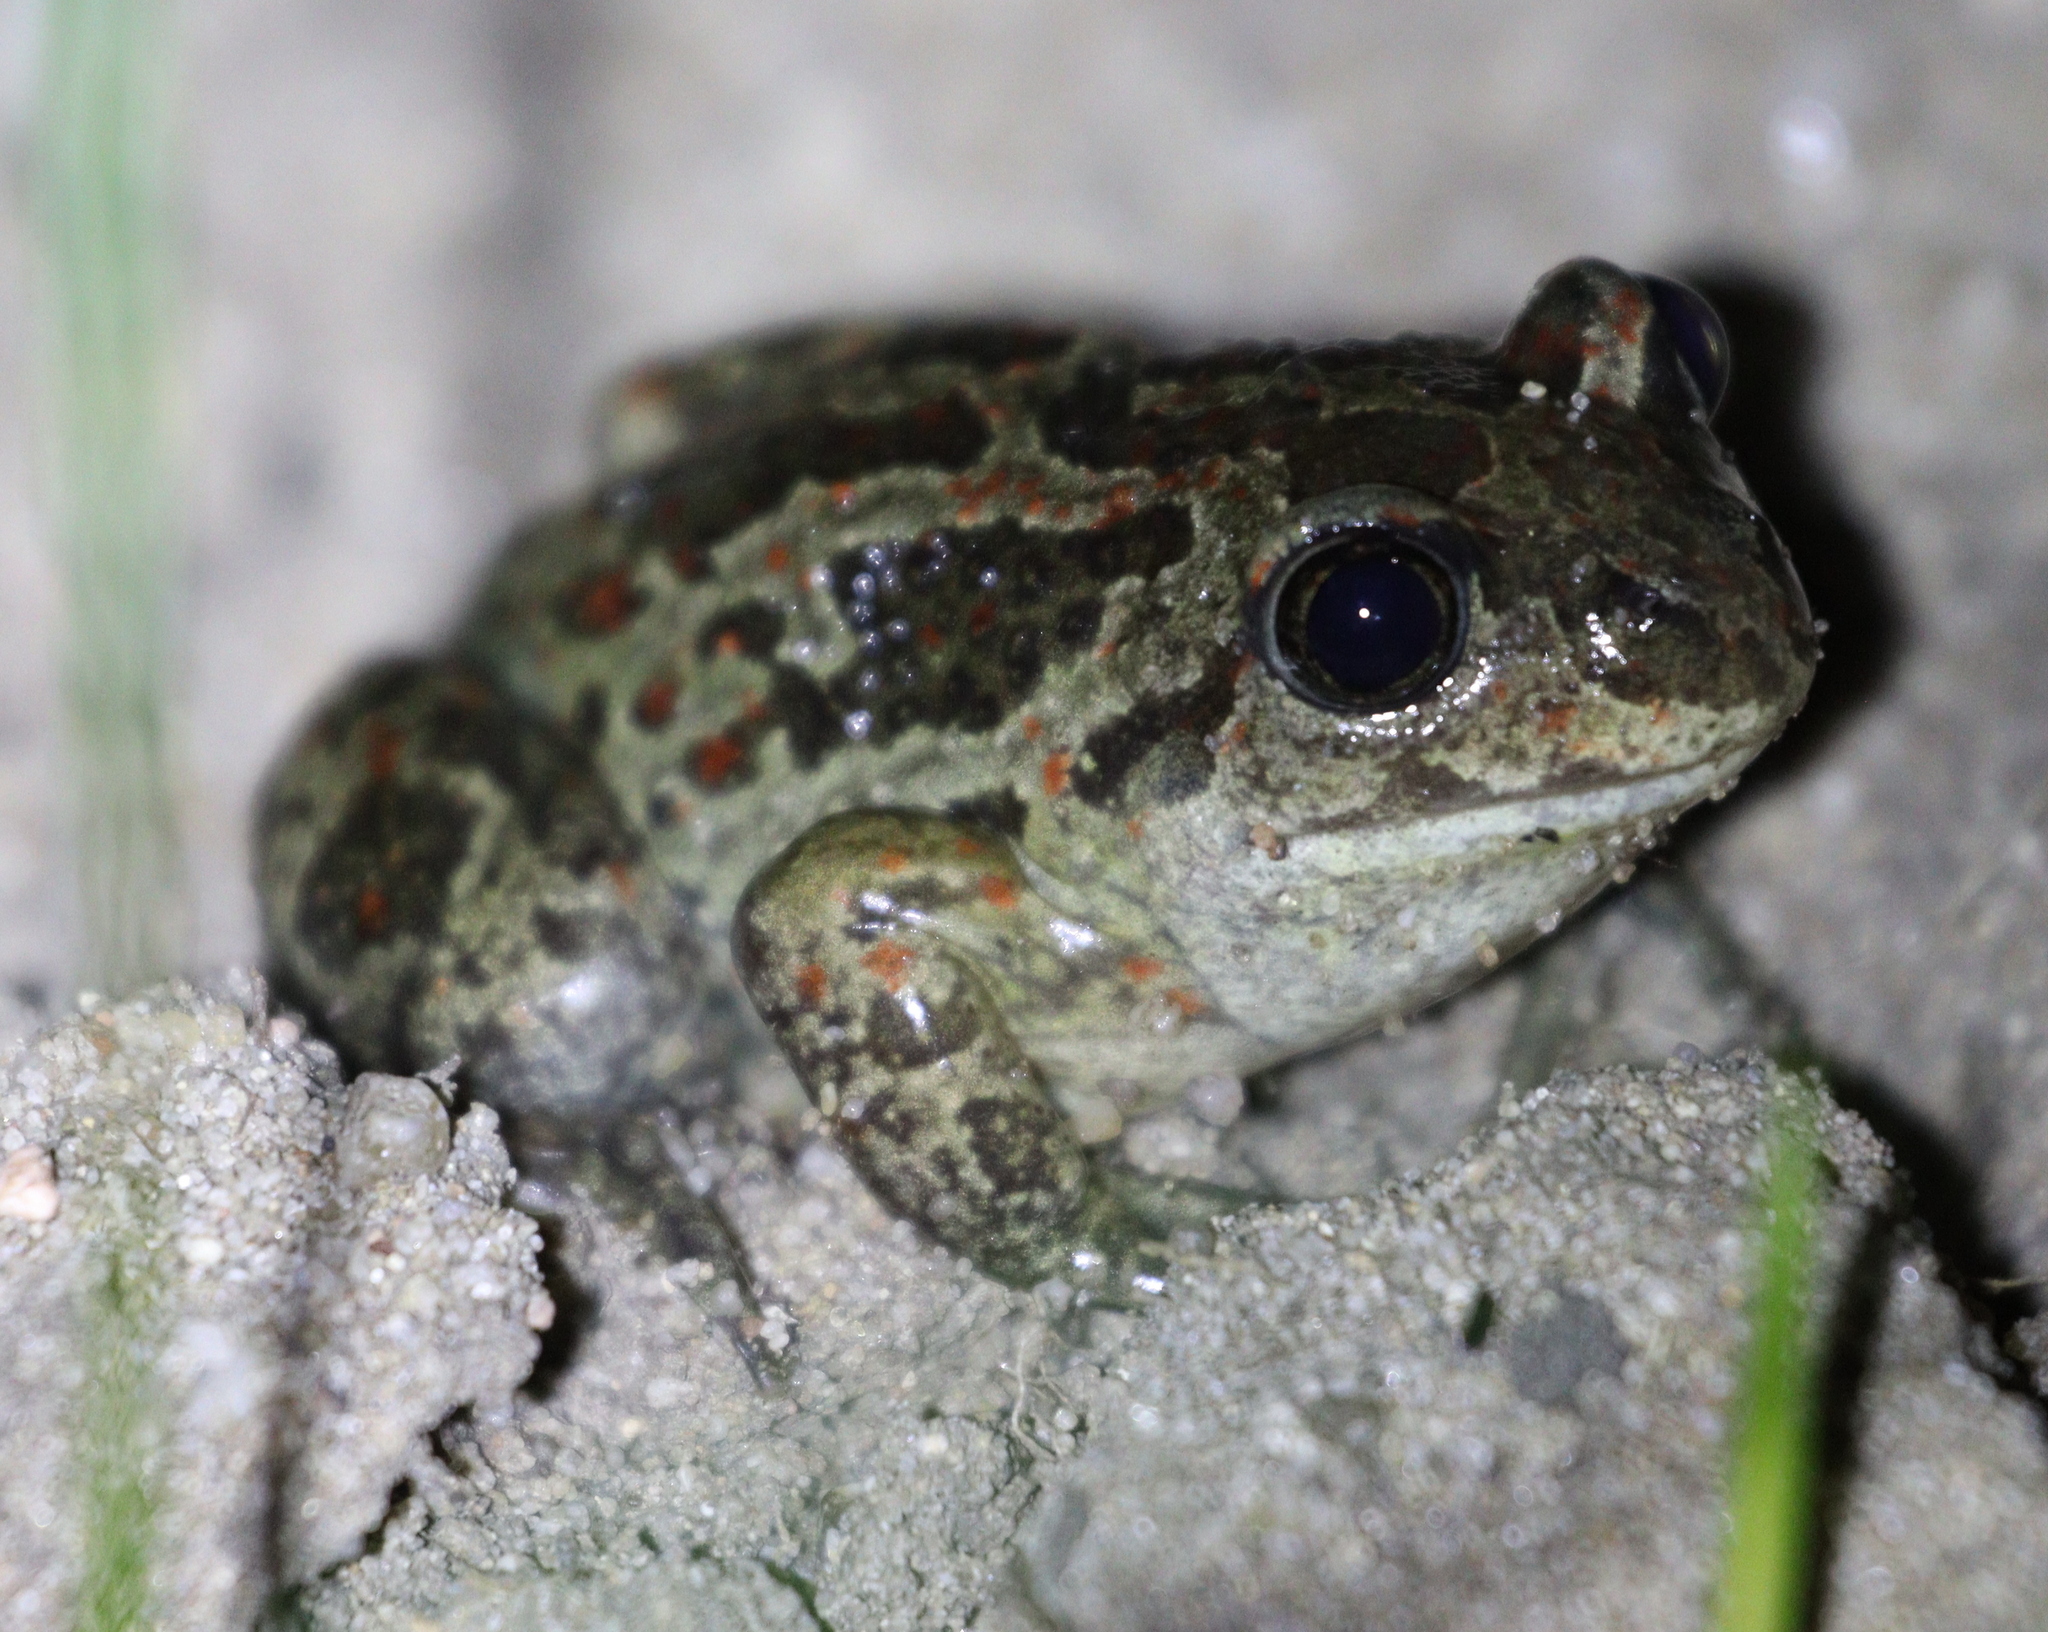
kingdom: Animalia
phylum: Chordata
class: Amphibia
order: Anura
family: Pelobatidae
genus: Pelobates
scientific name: Pelobates fuscus
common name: Common eurasian spadefoot toad
